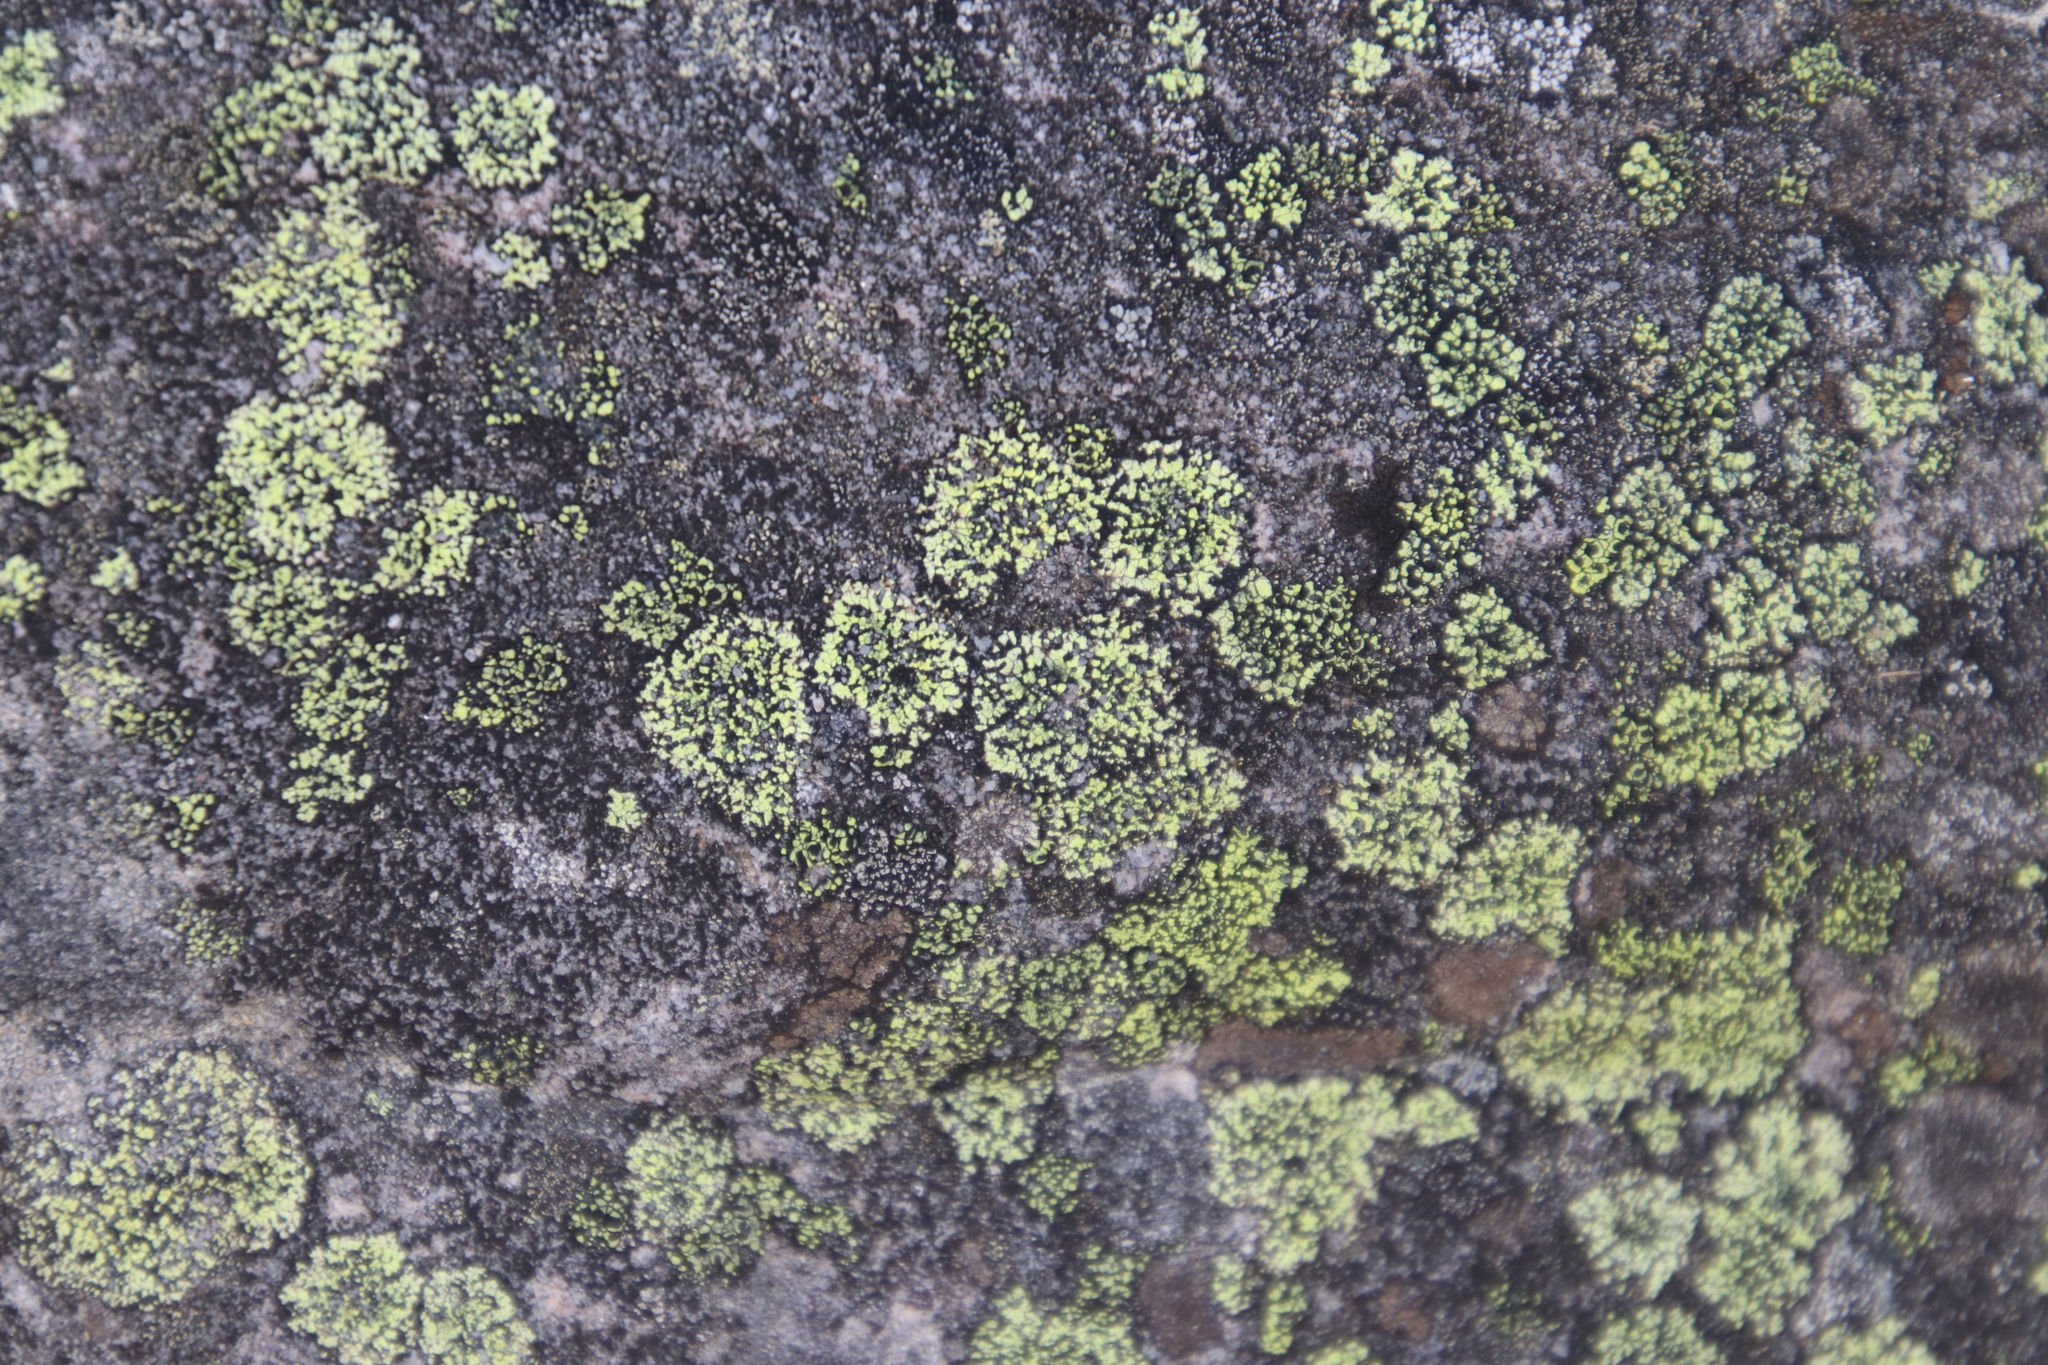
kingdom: Fungi
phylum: Ascomycota
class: Lecanoromycetes
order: Rhizocarpales
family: Rhizocarpaceae
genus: Rhizocarpon
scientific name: Rhizocarpon lecanorinum
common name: Crescent map lichen
